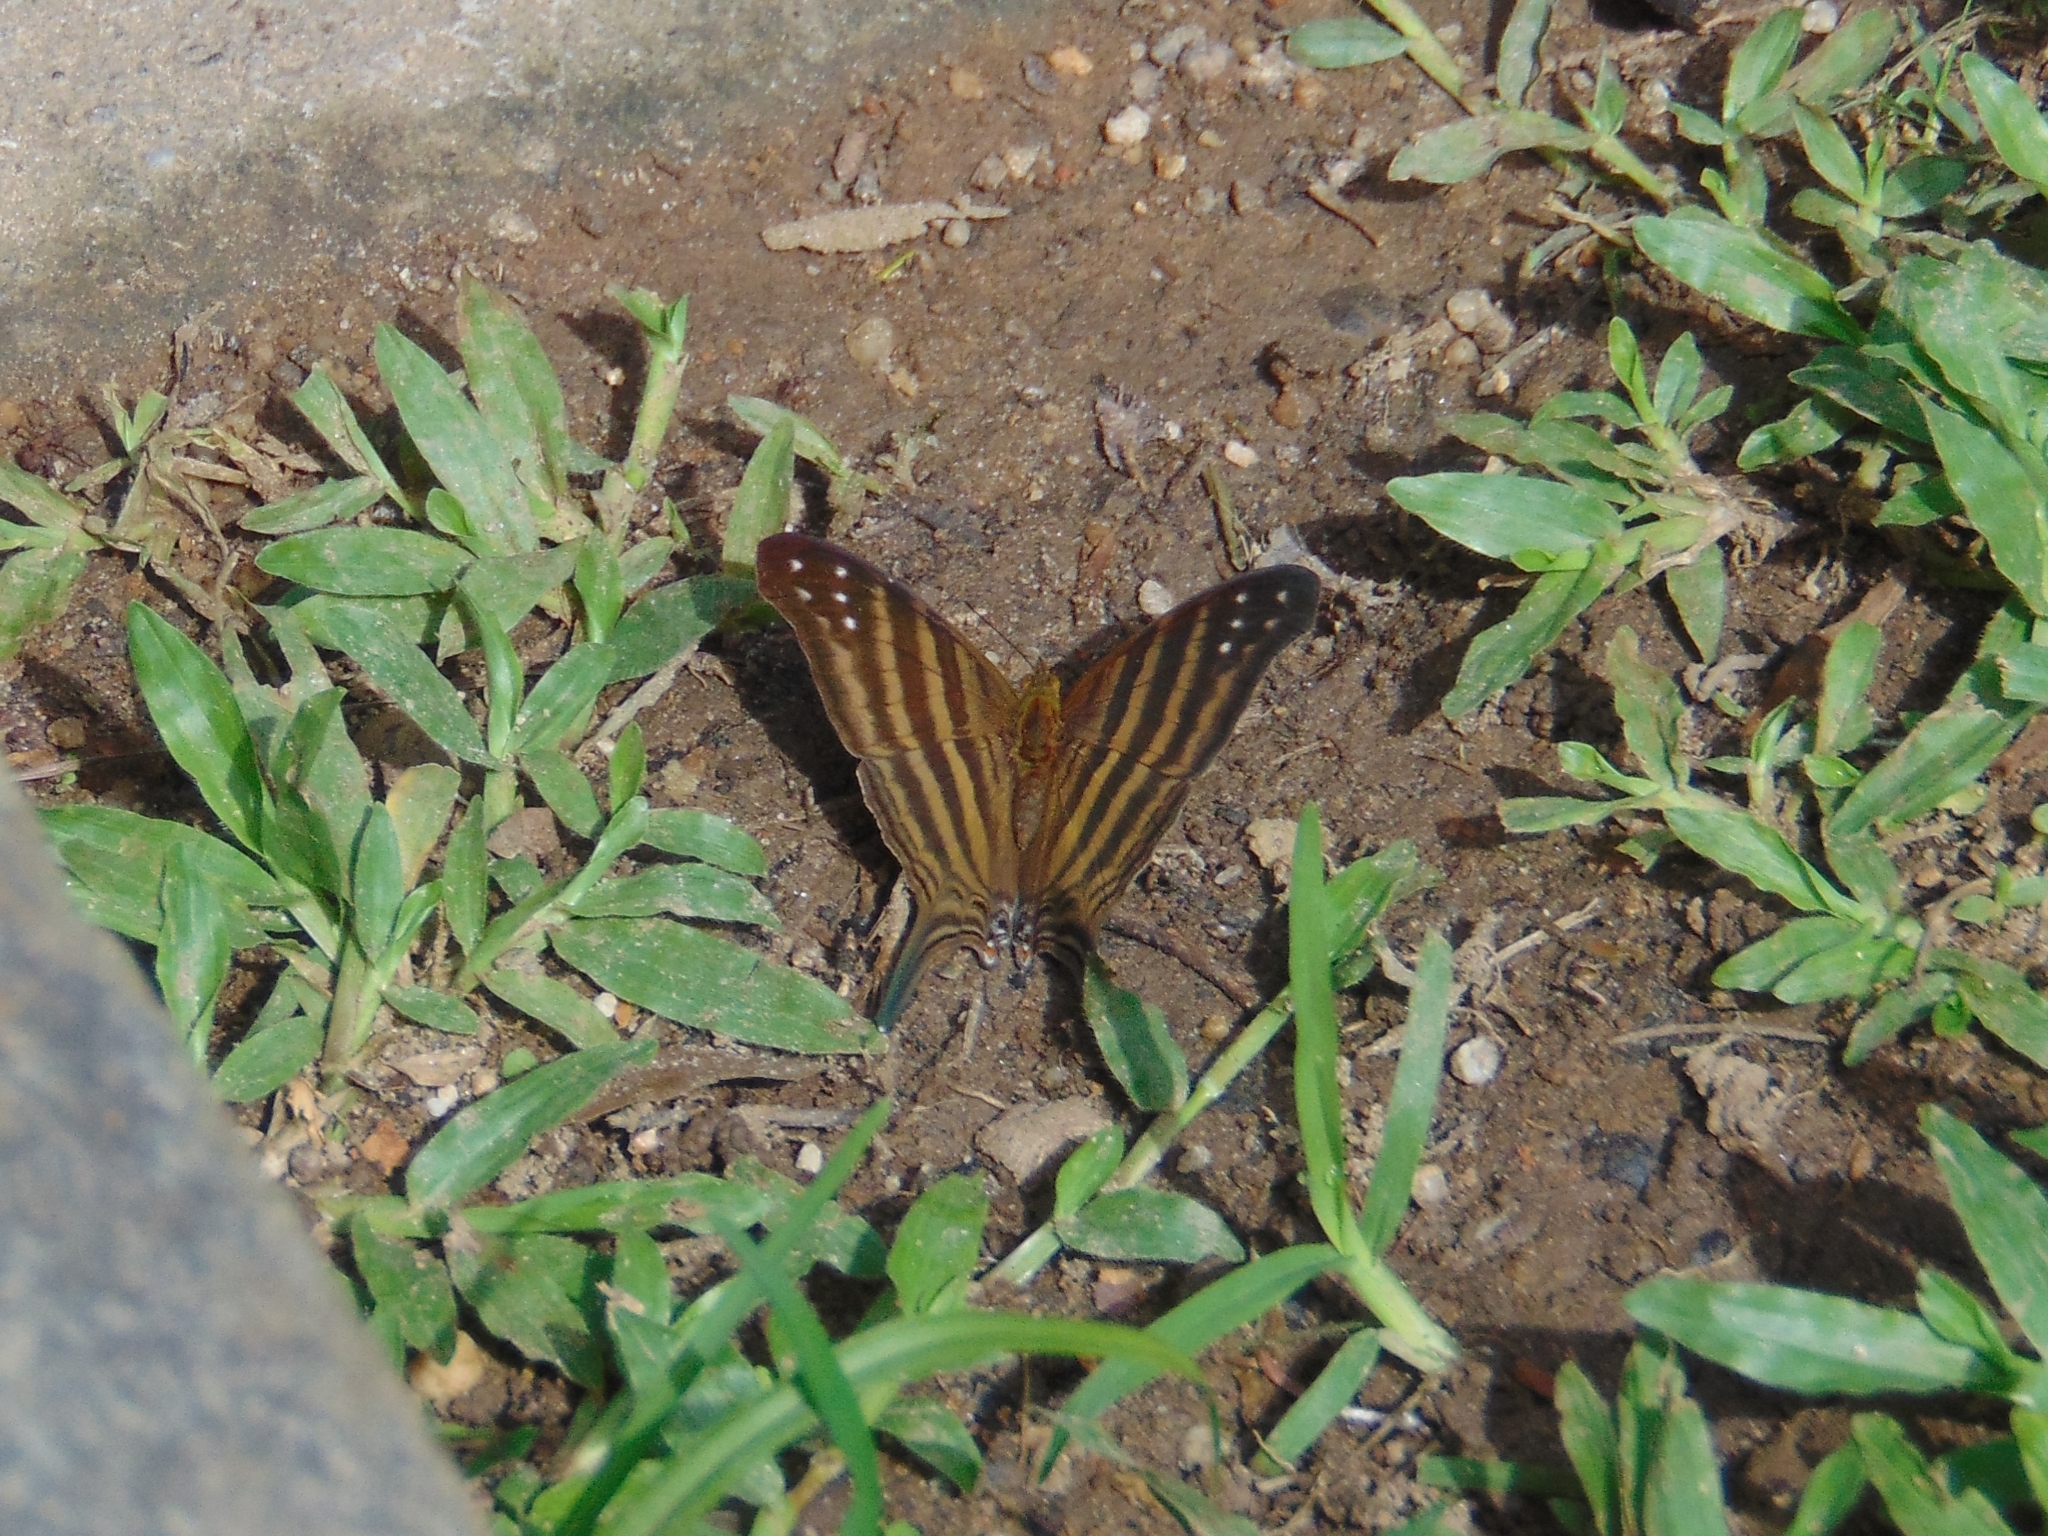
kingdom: Animalia
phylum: Arthropoda
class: Insecta
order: Lepidoptera
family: Nymphalidae
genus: Marpesia
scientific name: Marpesia chiron
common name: Many-banded daggerwing
